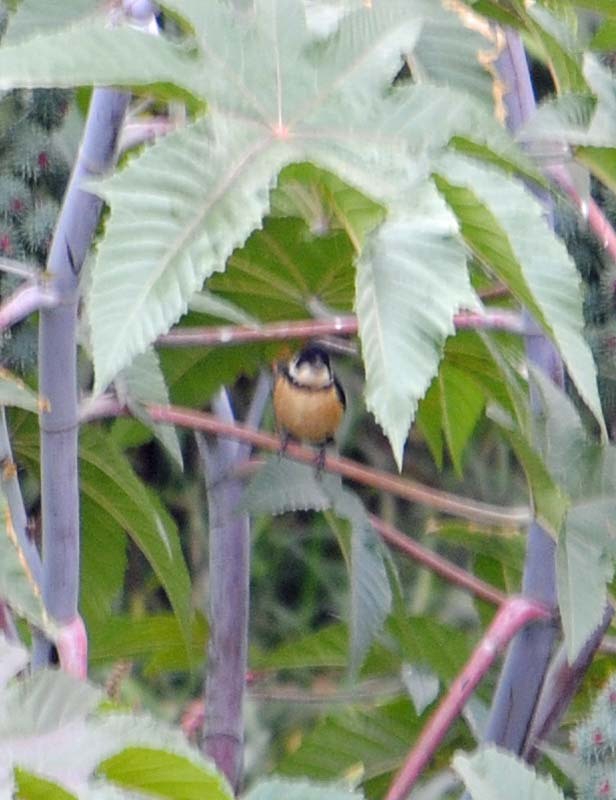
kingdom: Animalia
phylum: Chordata
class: Aves
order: Passeriformes
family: Thraupidae
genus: Sporophila
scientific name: Sporophila torqueola
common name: White-collared seedeater
